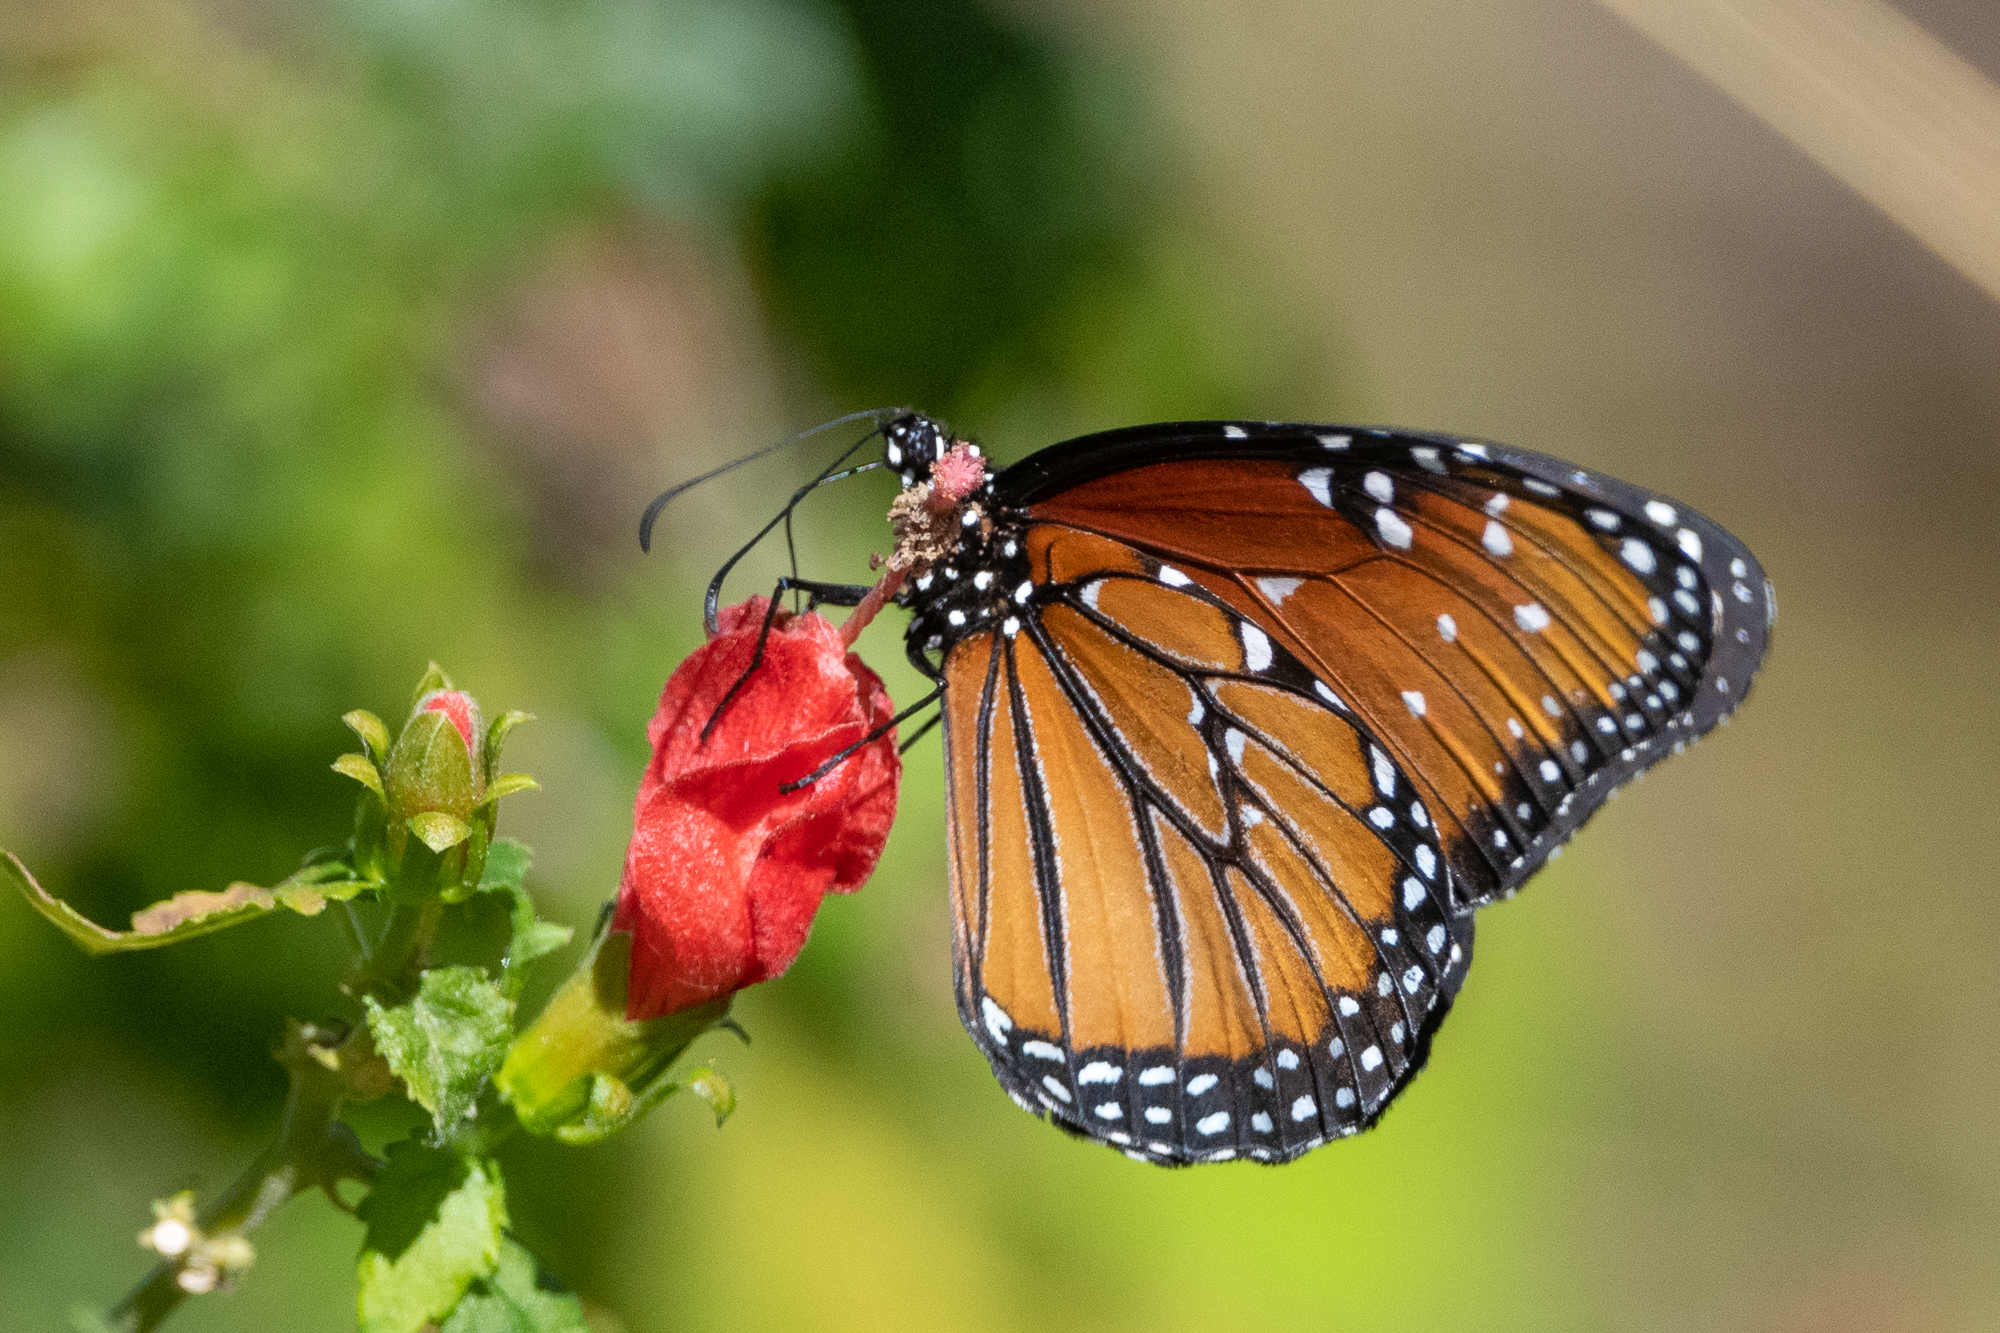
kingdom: Animalia
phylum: Arthropoda
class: Insecta
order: Lepidoptera
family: Nymphalidae
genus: Danaus
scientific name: Danaus gilippus
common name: Queen
